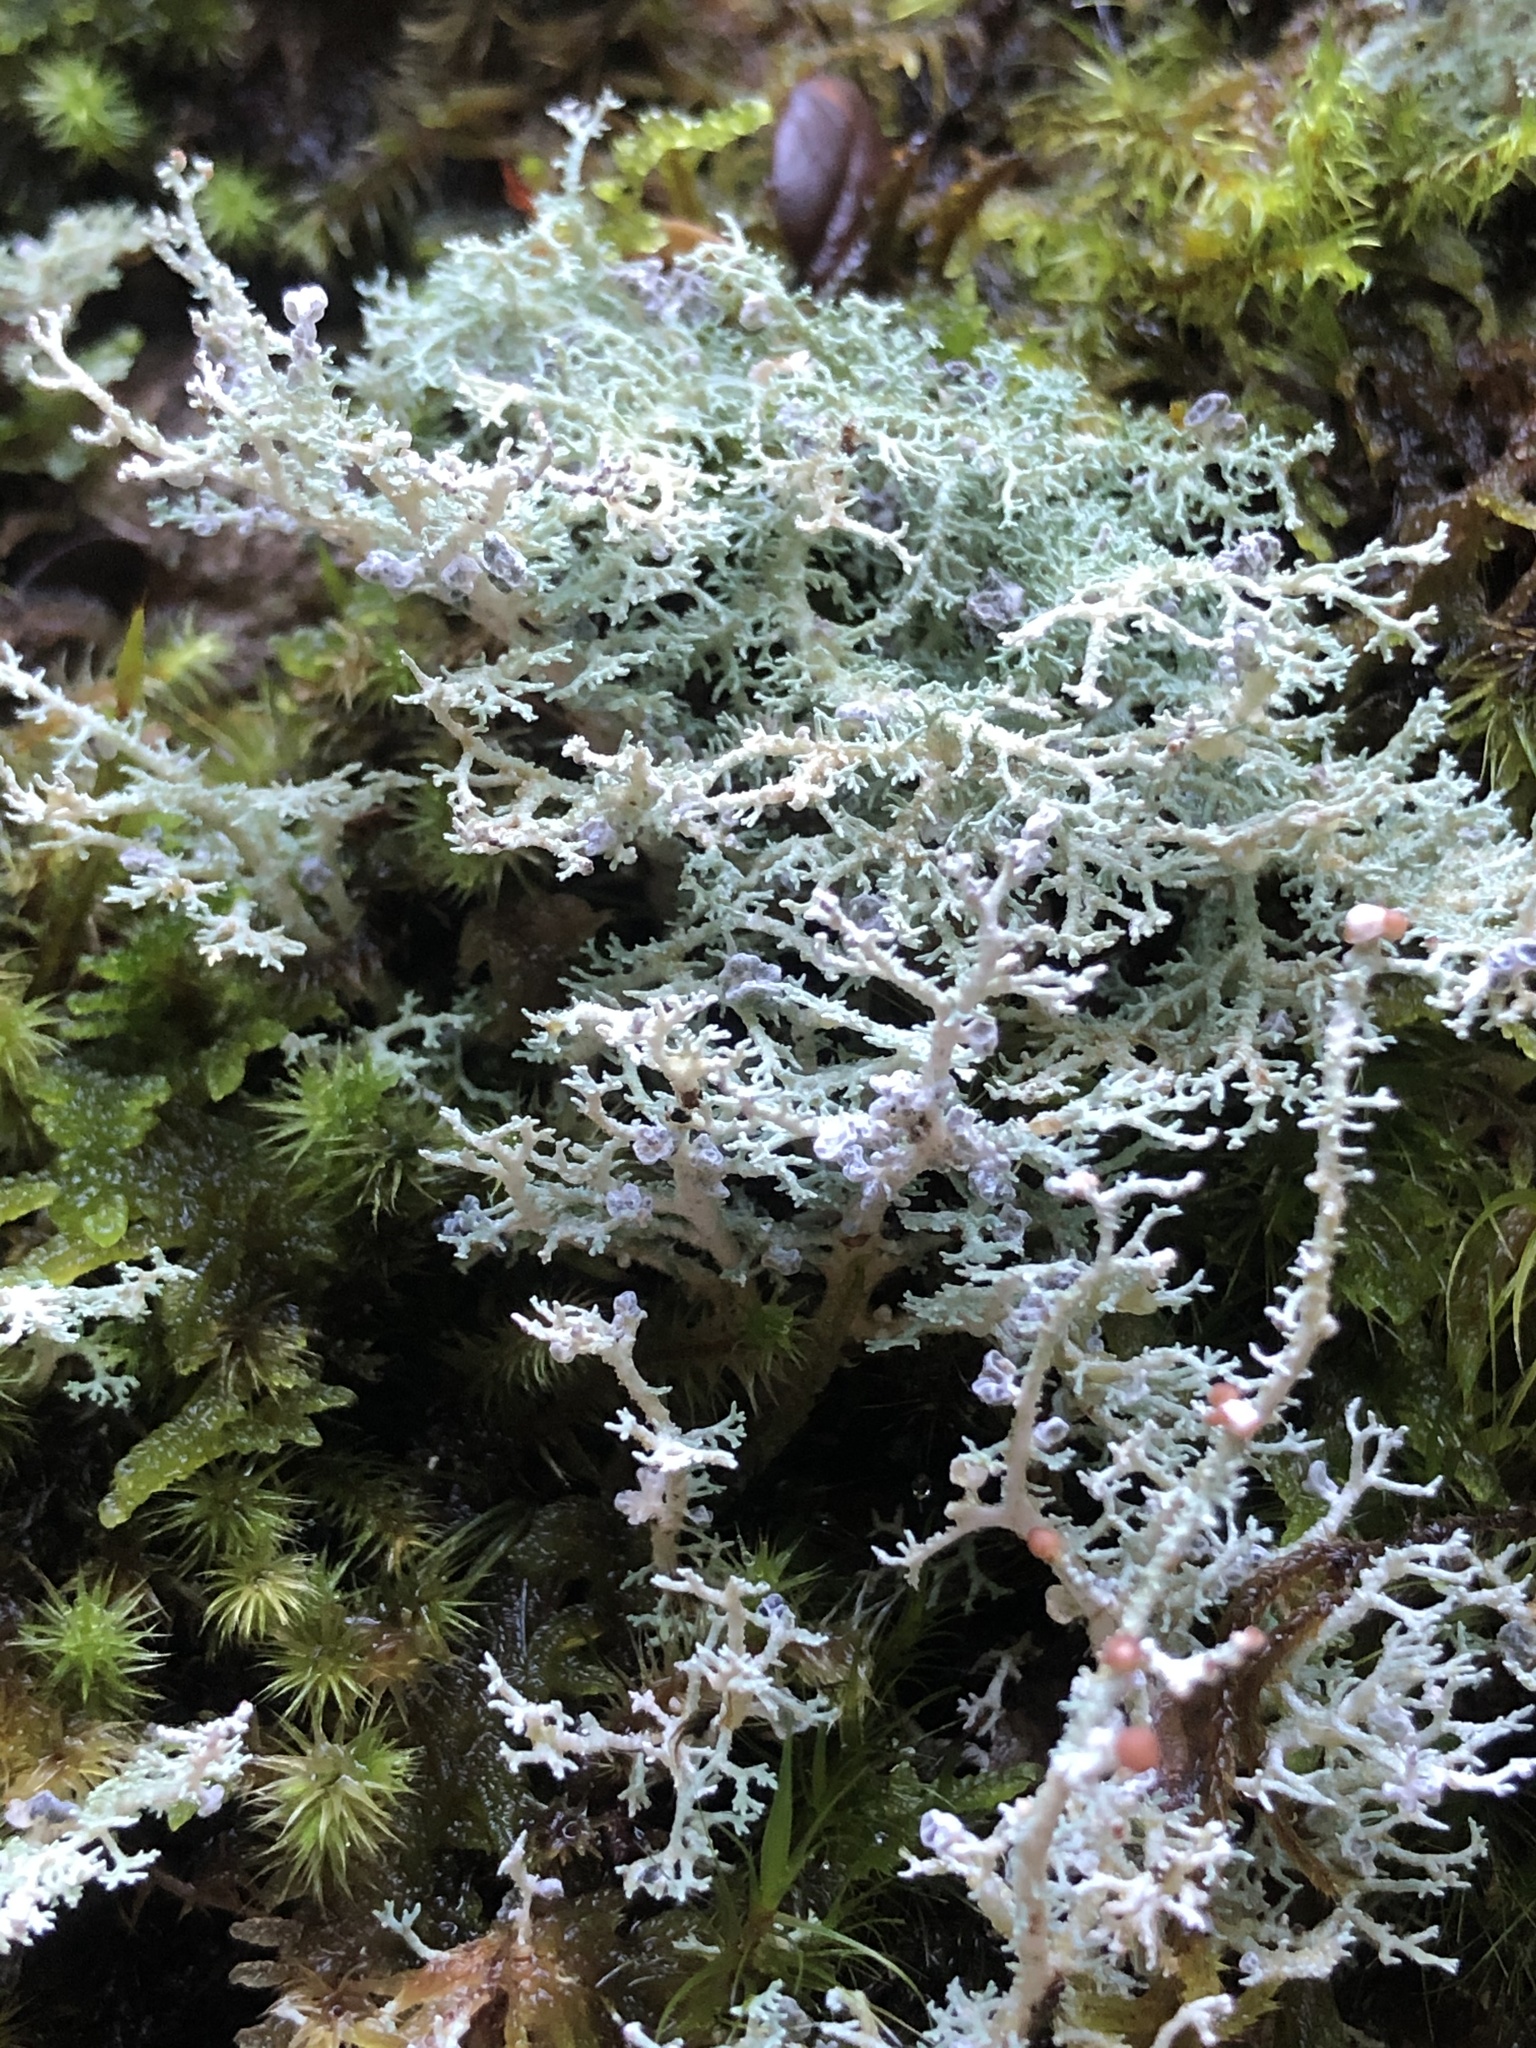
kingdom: Fungi
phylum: Ascomycota
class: Lecanoromycetes
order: Lecanorales
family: Stereocaulaceae
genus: Stereocaulon
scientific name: Stereocaulon ramulosum
